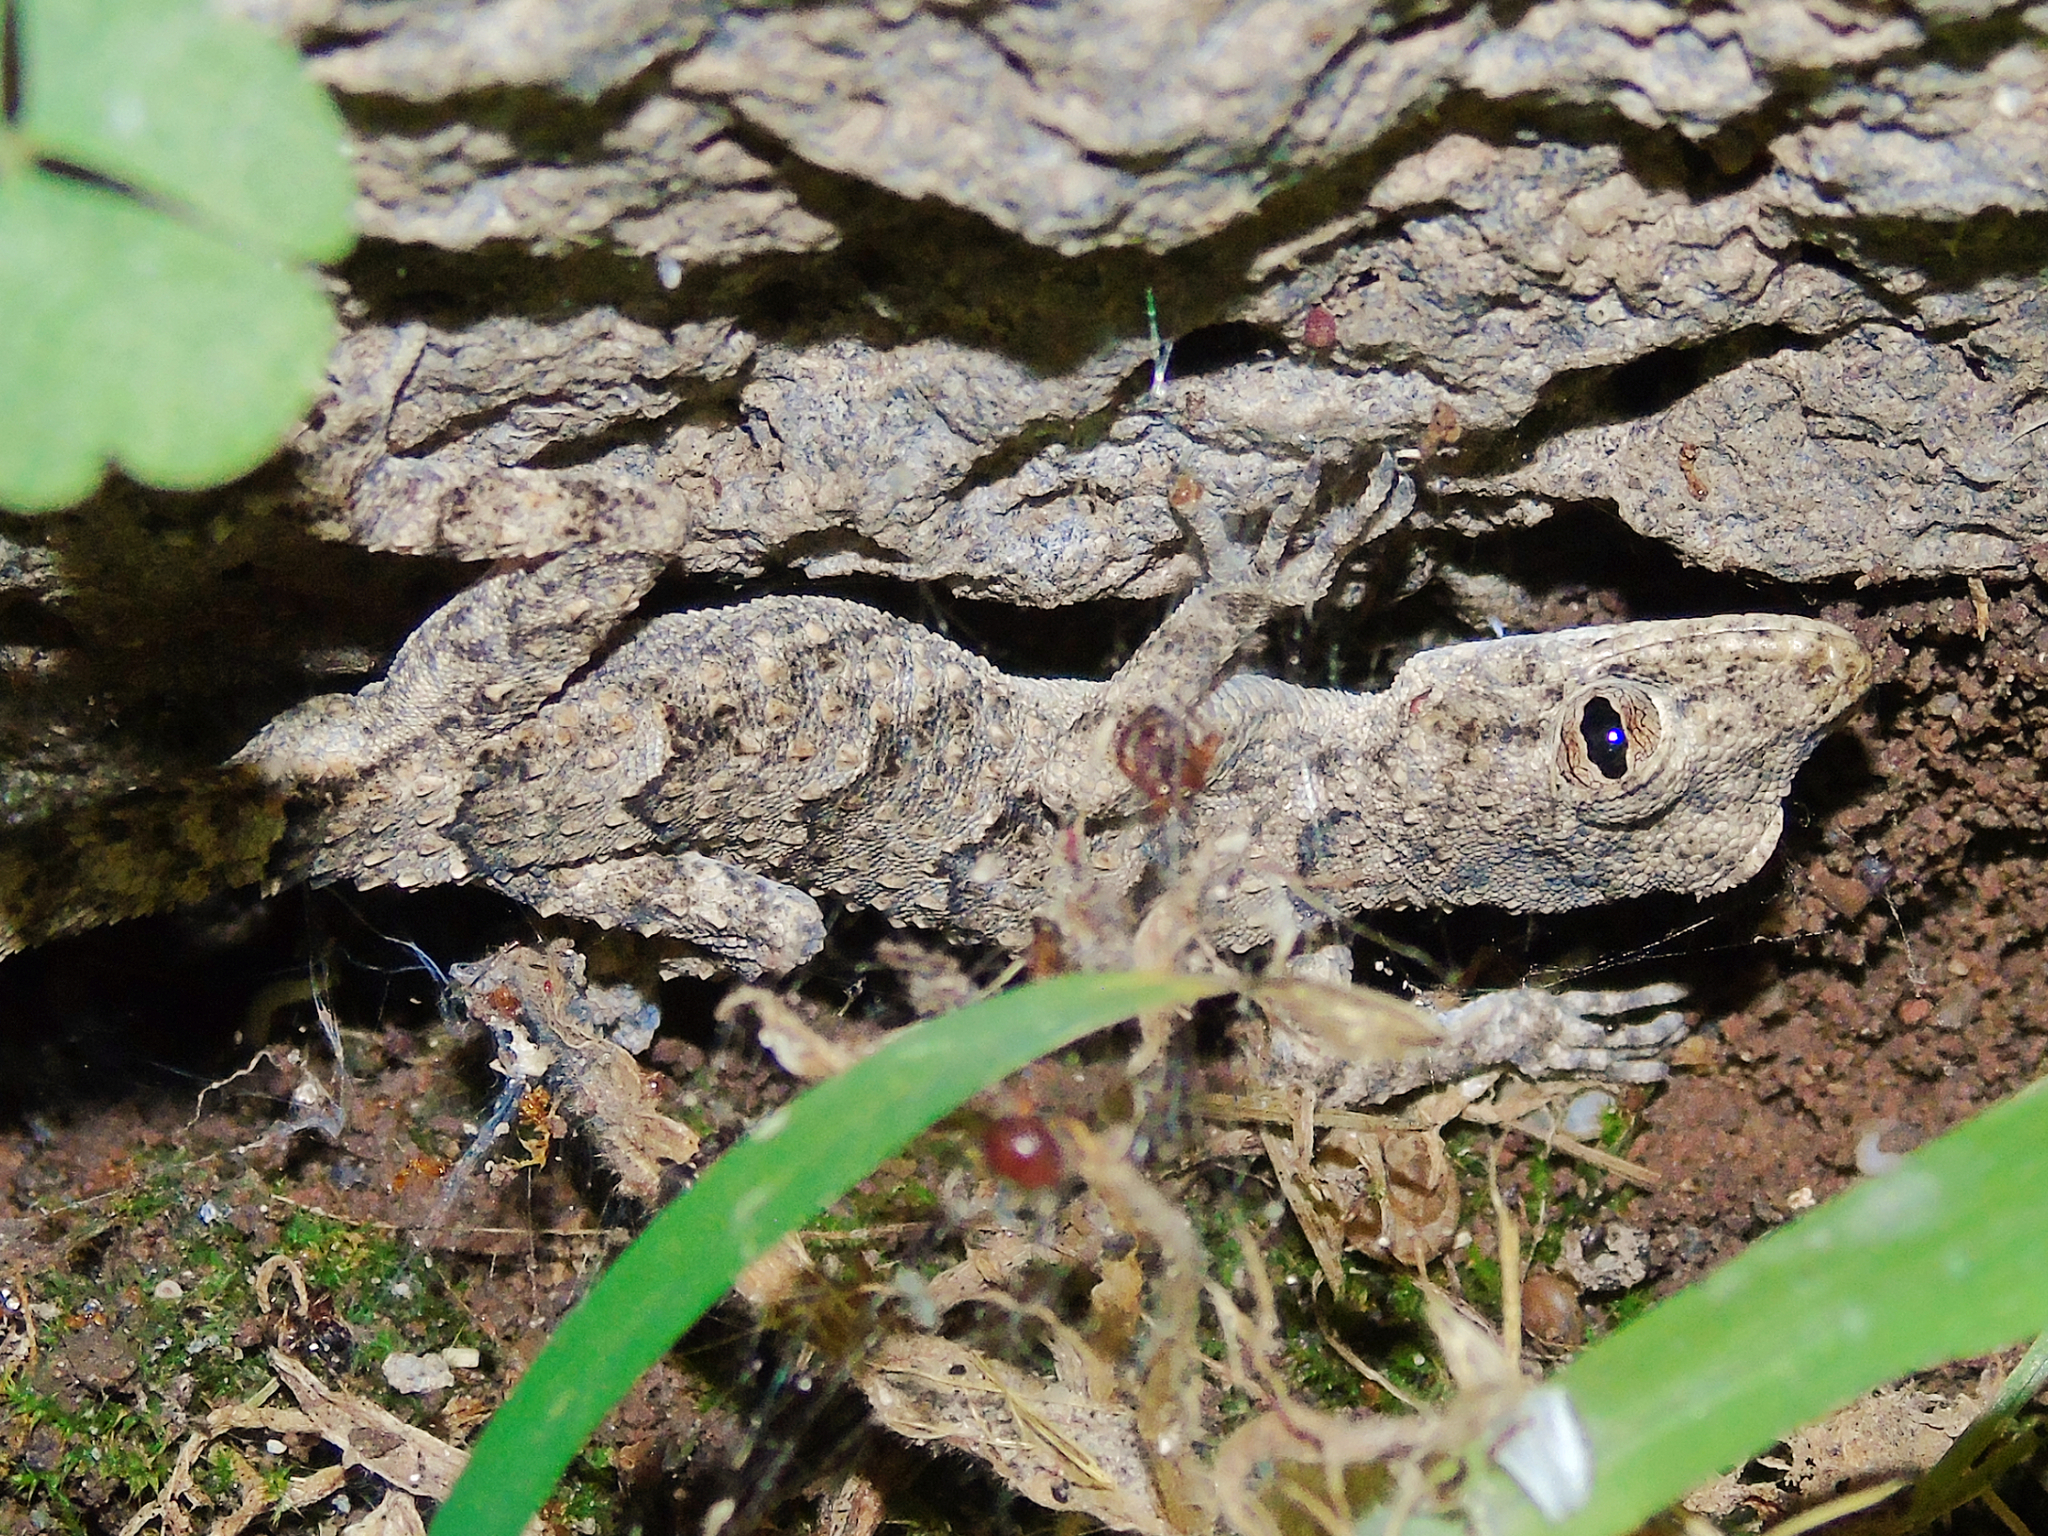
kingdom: Animalia
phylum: Chordata
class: Squamata
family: Gekkonidae
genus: Mediodactylus
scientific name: Mediodactylus heterocercus
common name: Asia minor thin-toed gecko
